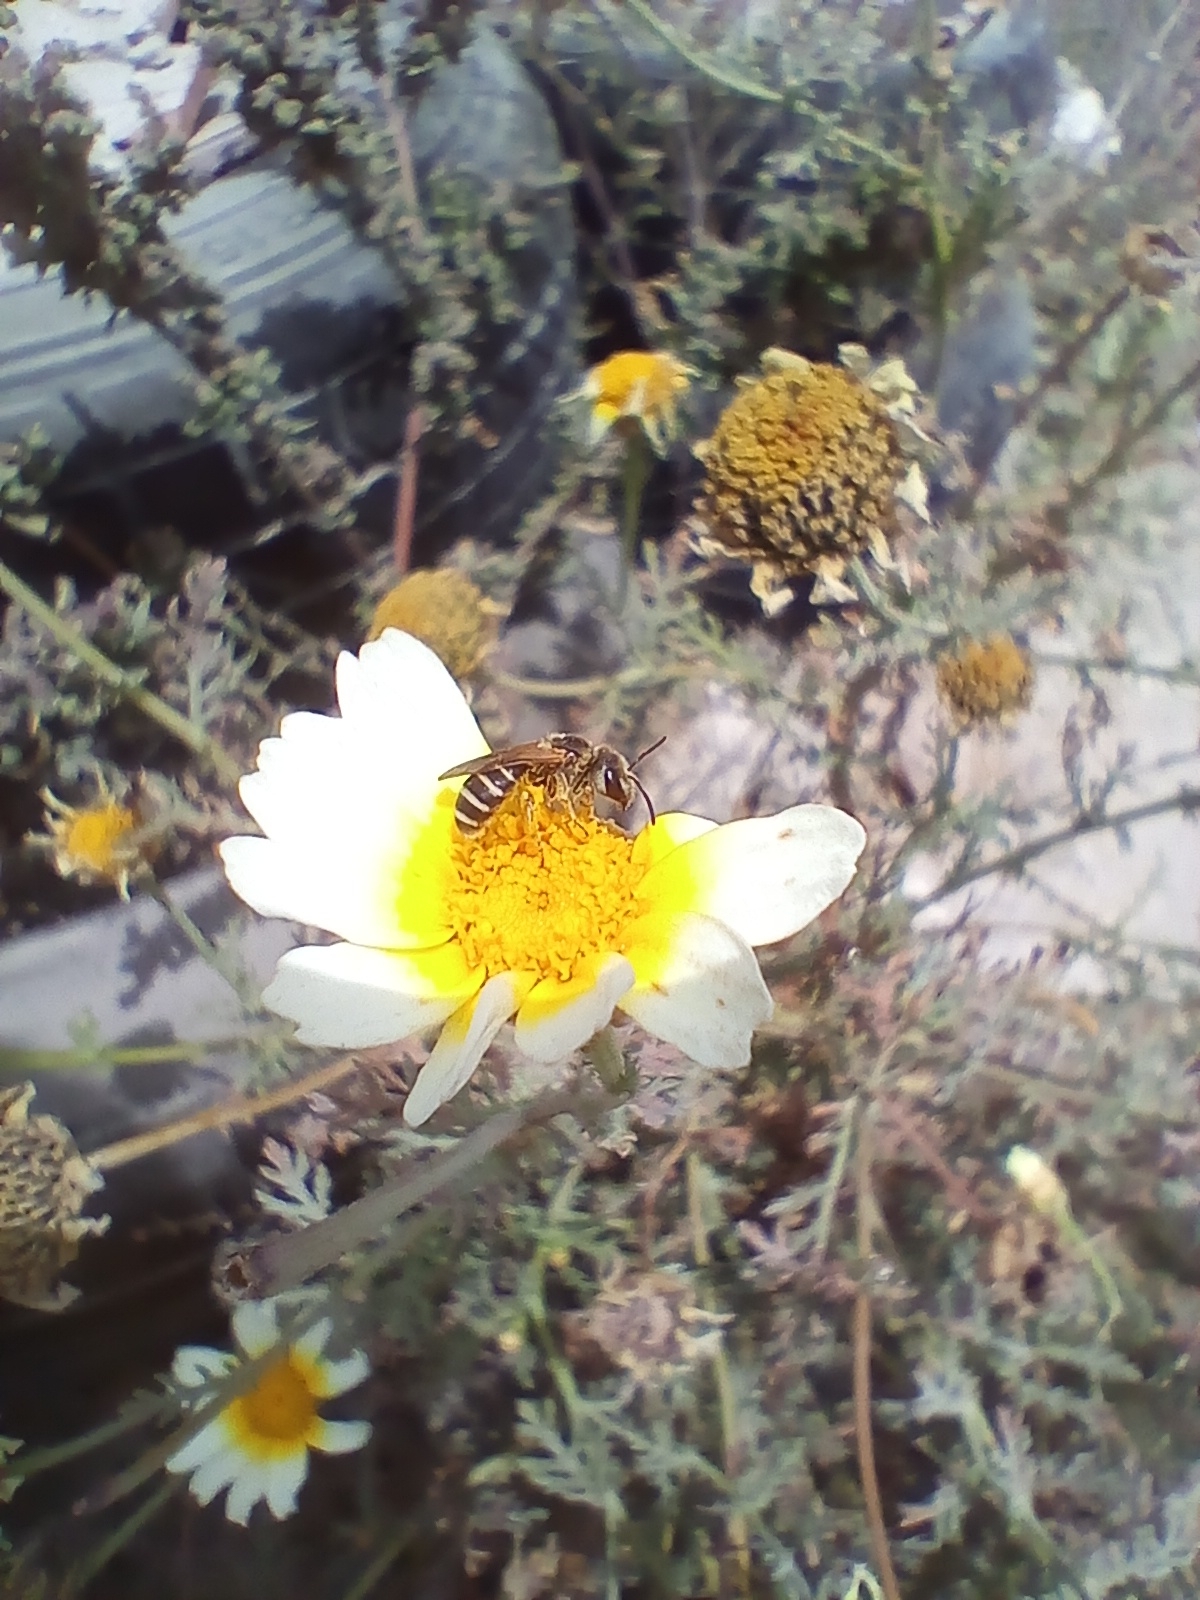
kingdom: Animalia
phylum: Arthropoda
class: Insecta
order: Hymenoptera
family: Halictidae
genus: Halictus
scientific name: Halictus ligatus
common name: Ligated furrow bee
